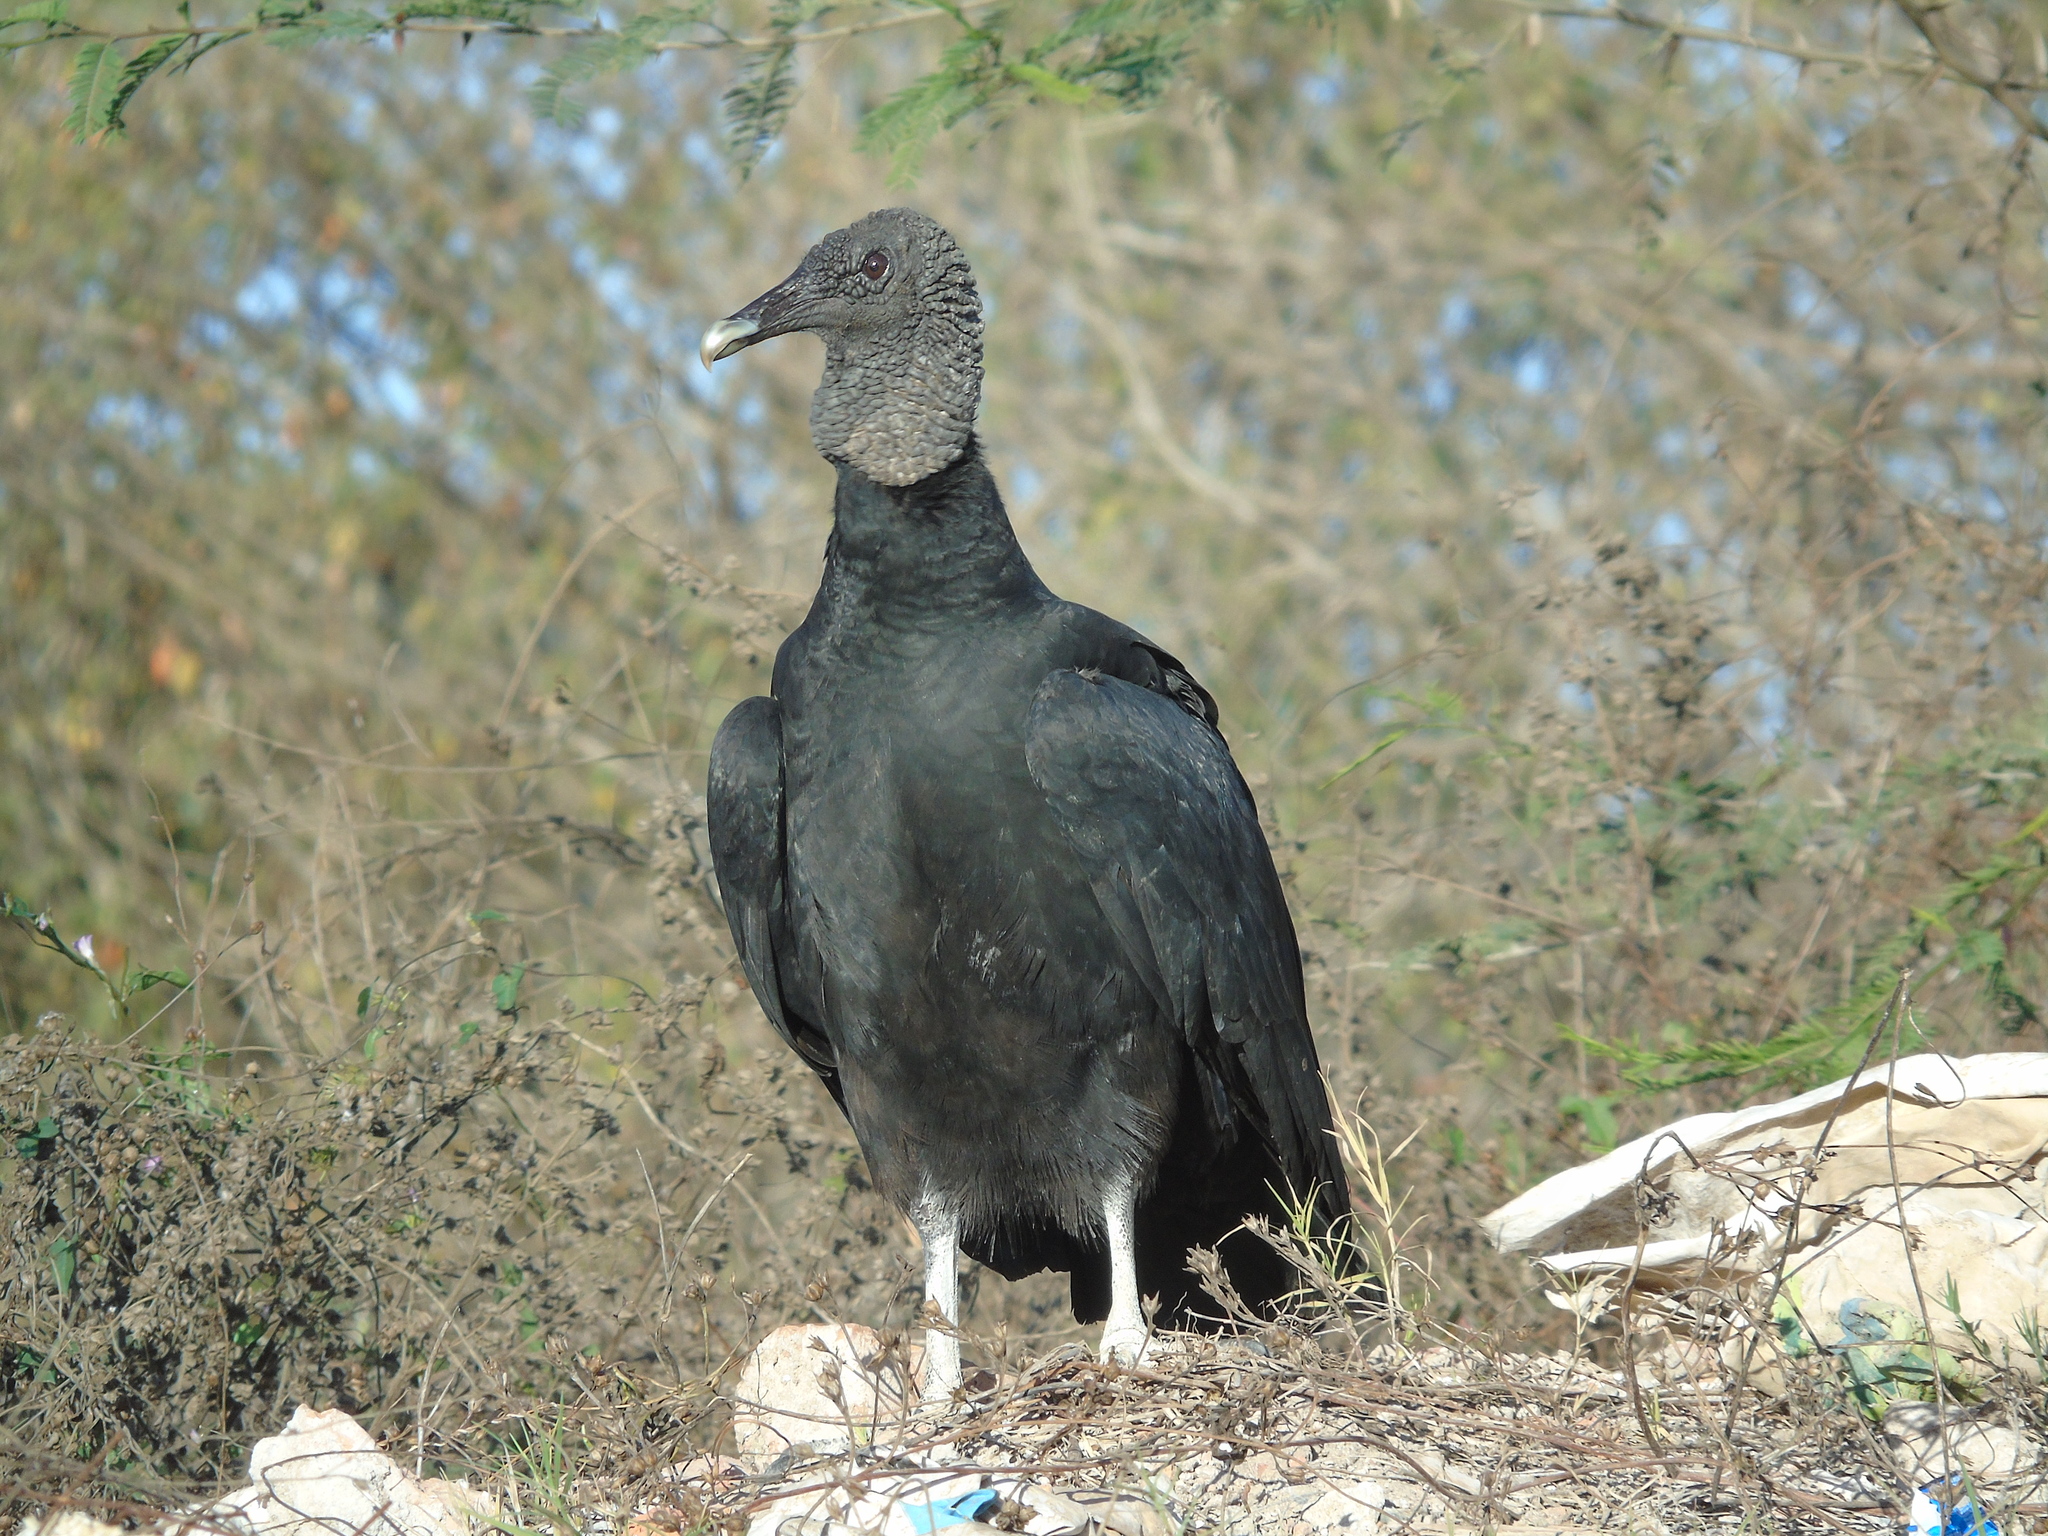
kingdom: Animalia
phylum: Chordata
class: Aves
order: Accipitriformes
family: Cathartidae
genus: Coragyps
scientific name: Coragyps atratus
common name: Black vulture
